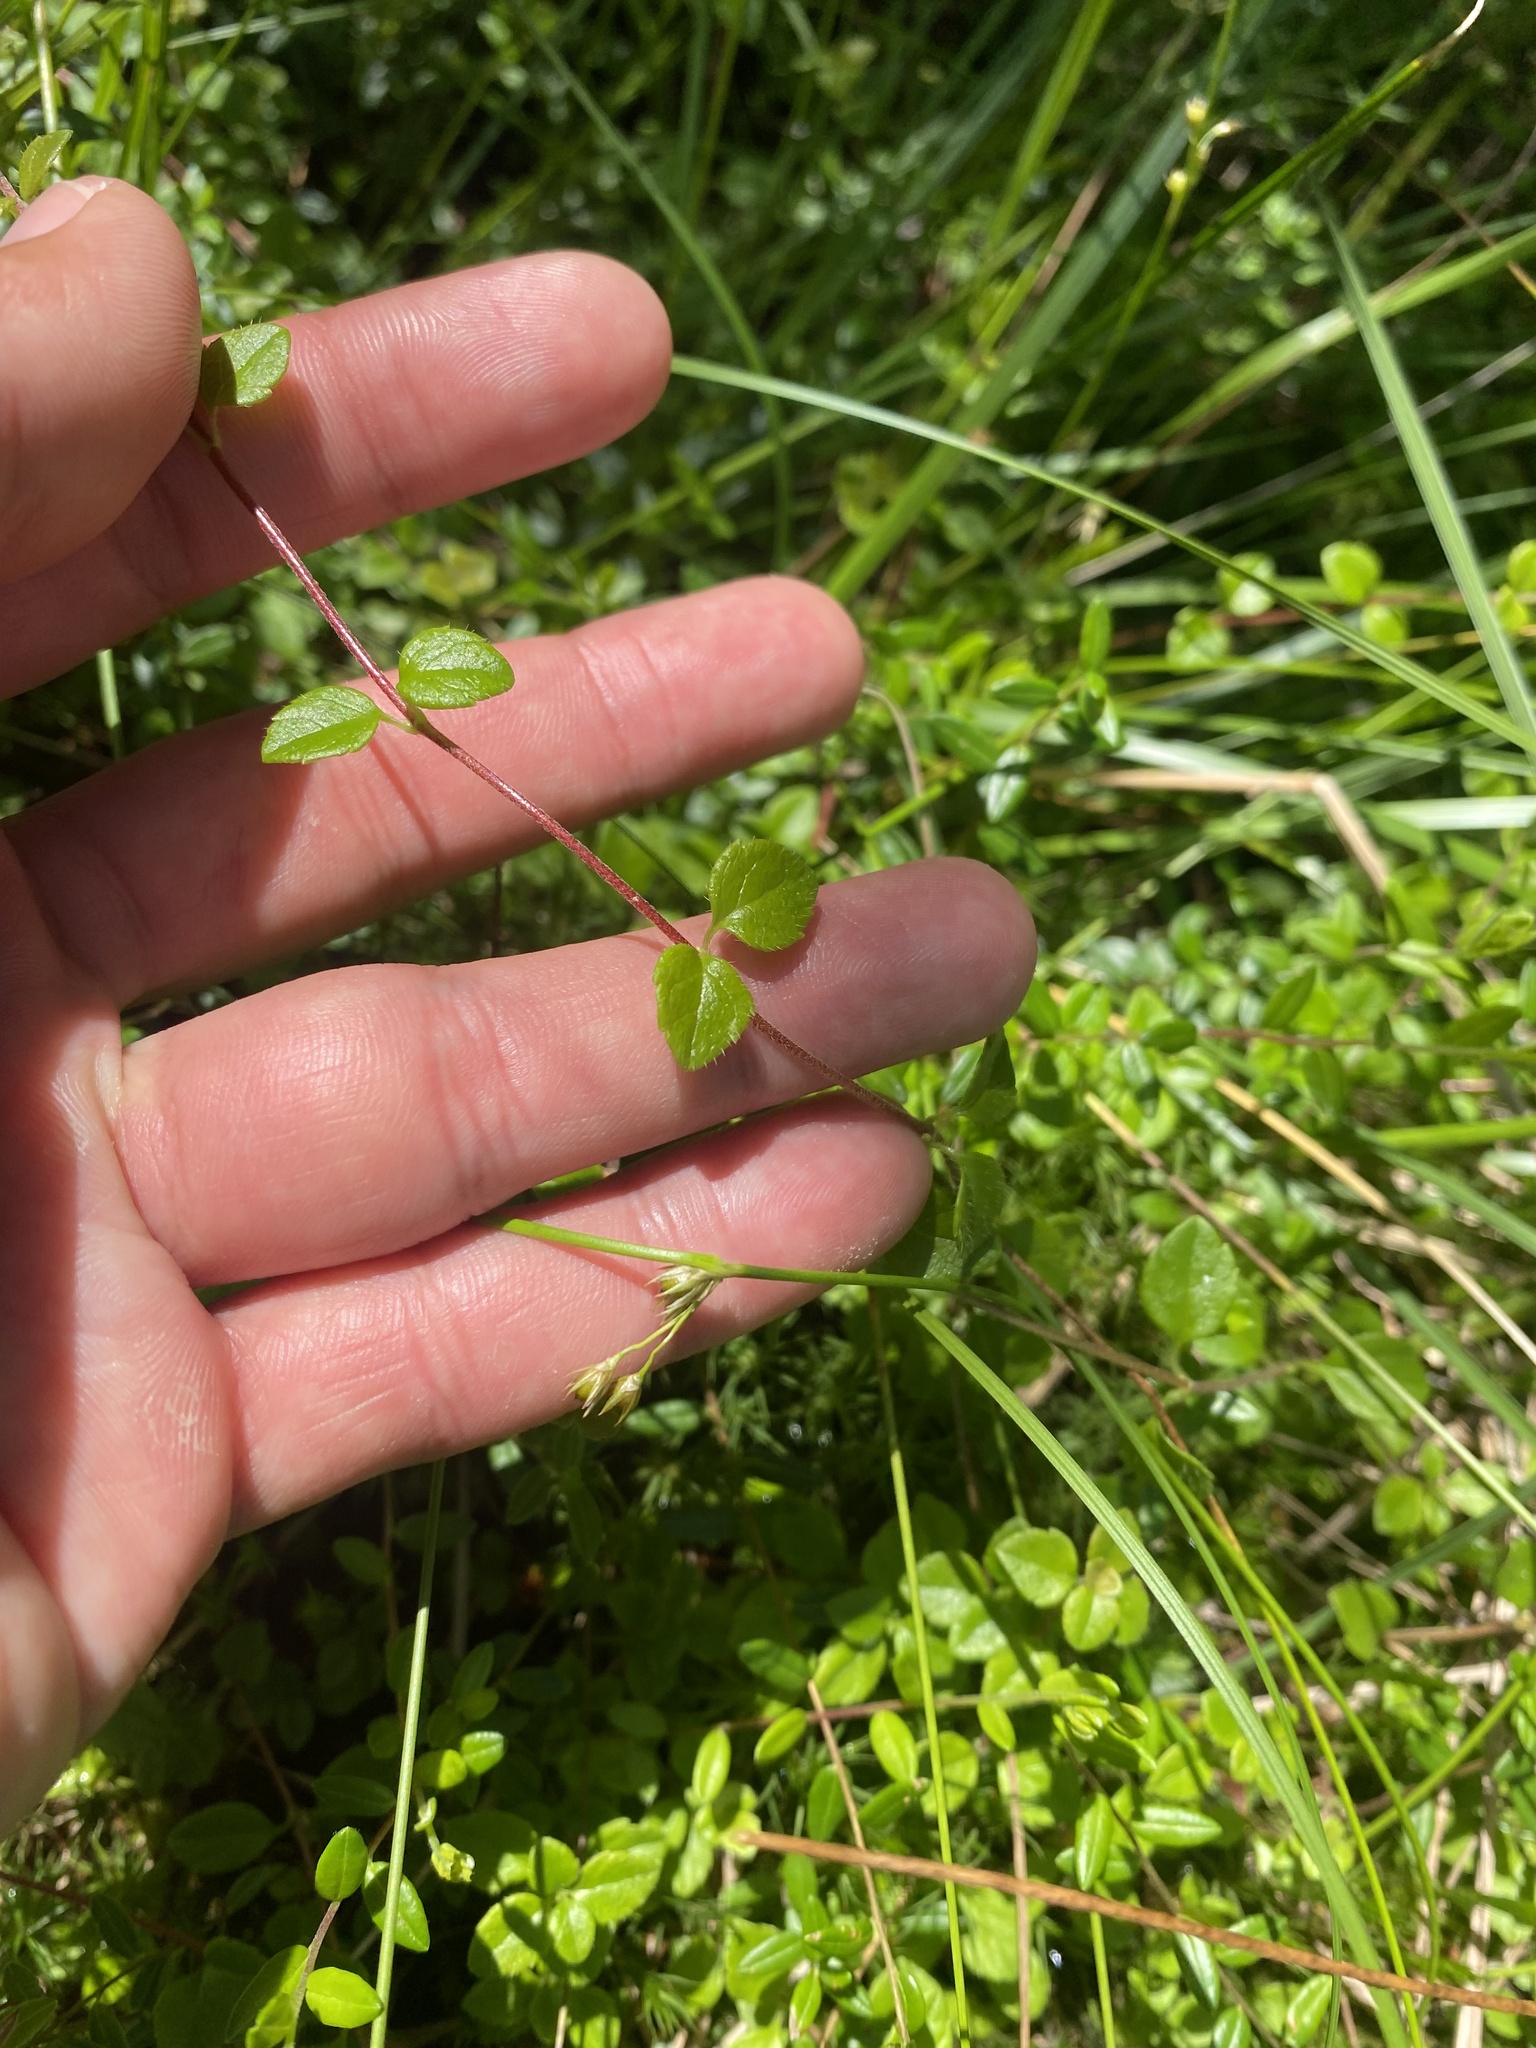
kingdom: Plantae
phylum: Tracheophyta
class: Magnoliopsida
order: Dipsacales
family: Caprifoliaceae
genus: Linnaea
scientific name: Linnaea borealis
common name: Twinflower
